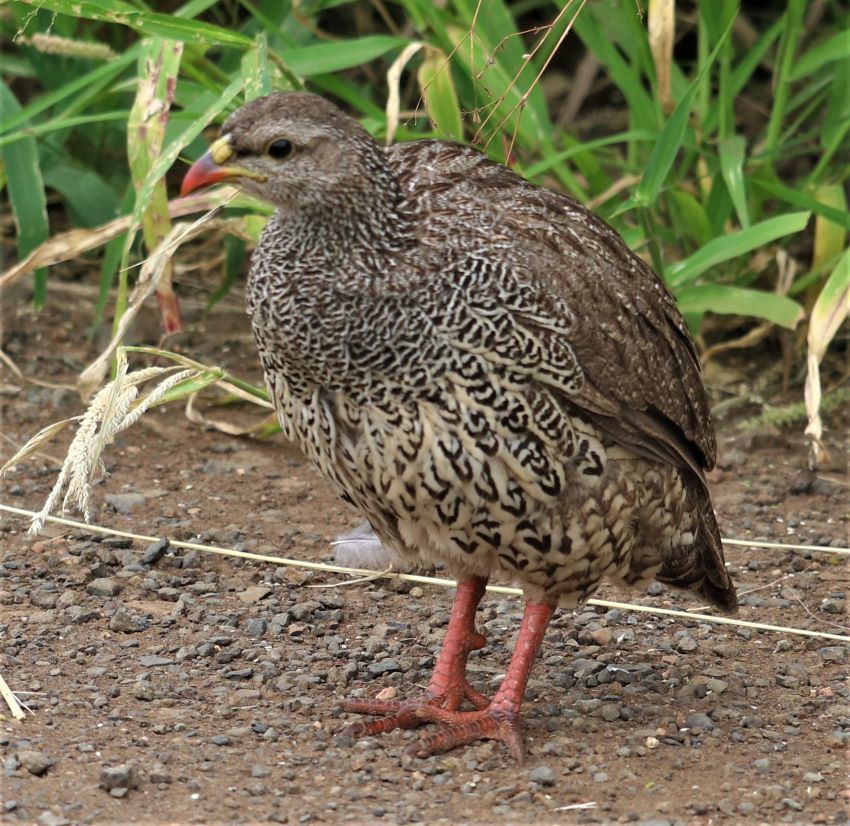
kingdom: Animalia
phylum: Chordata
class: Aves
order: Galliformes
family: Phasianidae
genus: Pternistis
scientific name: Pternistis natalensis
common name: Natal spurfowl
